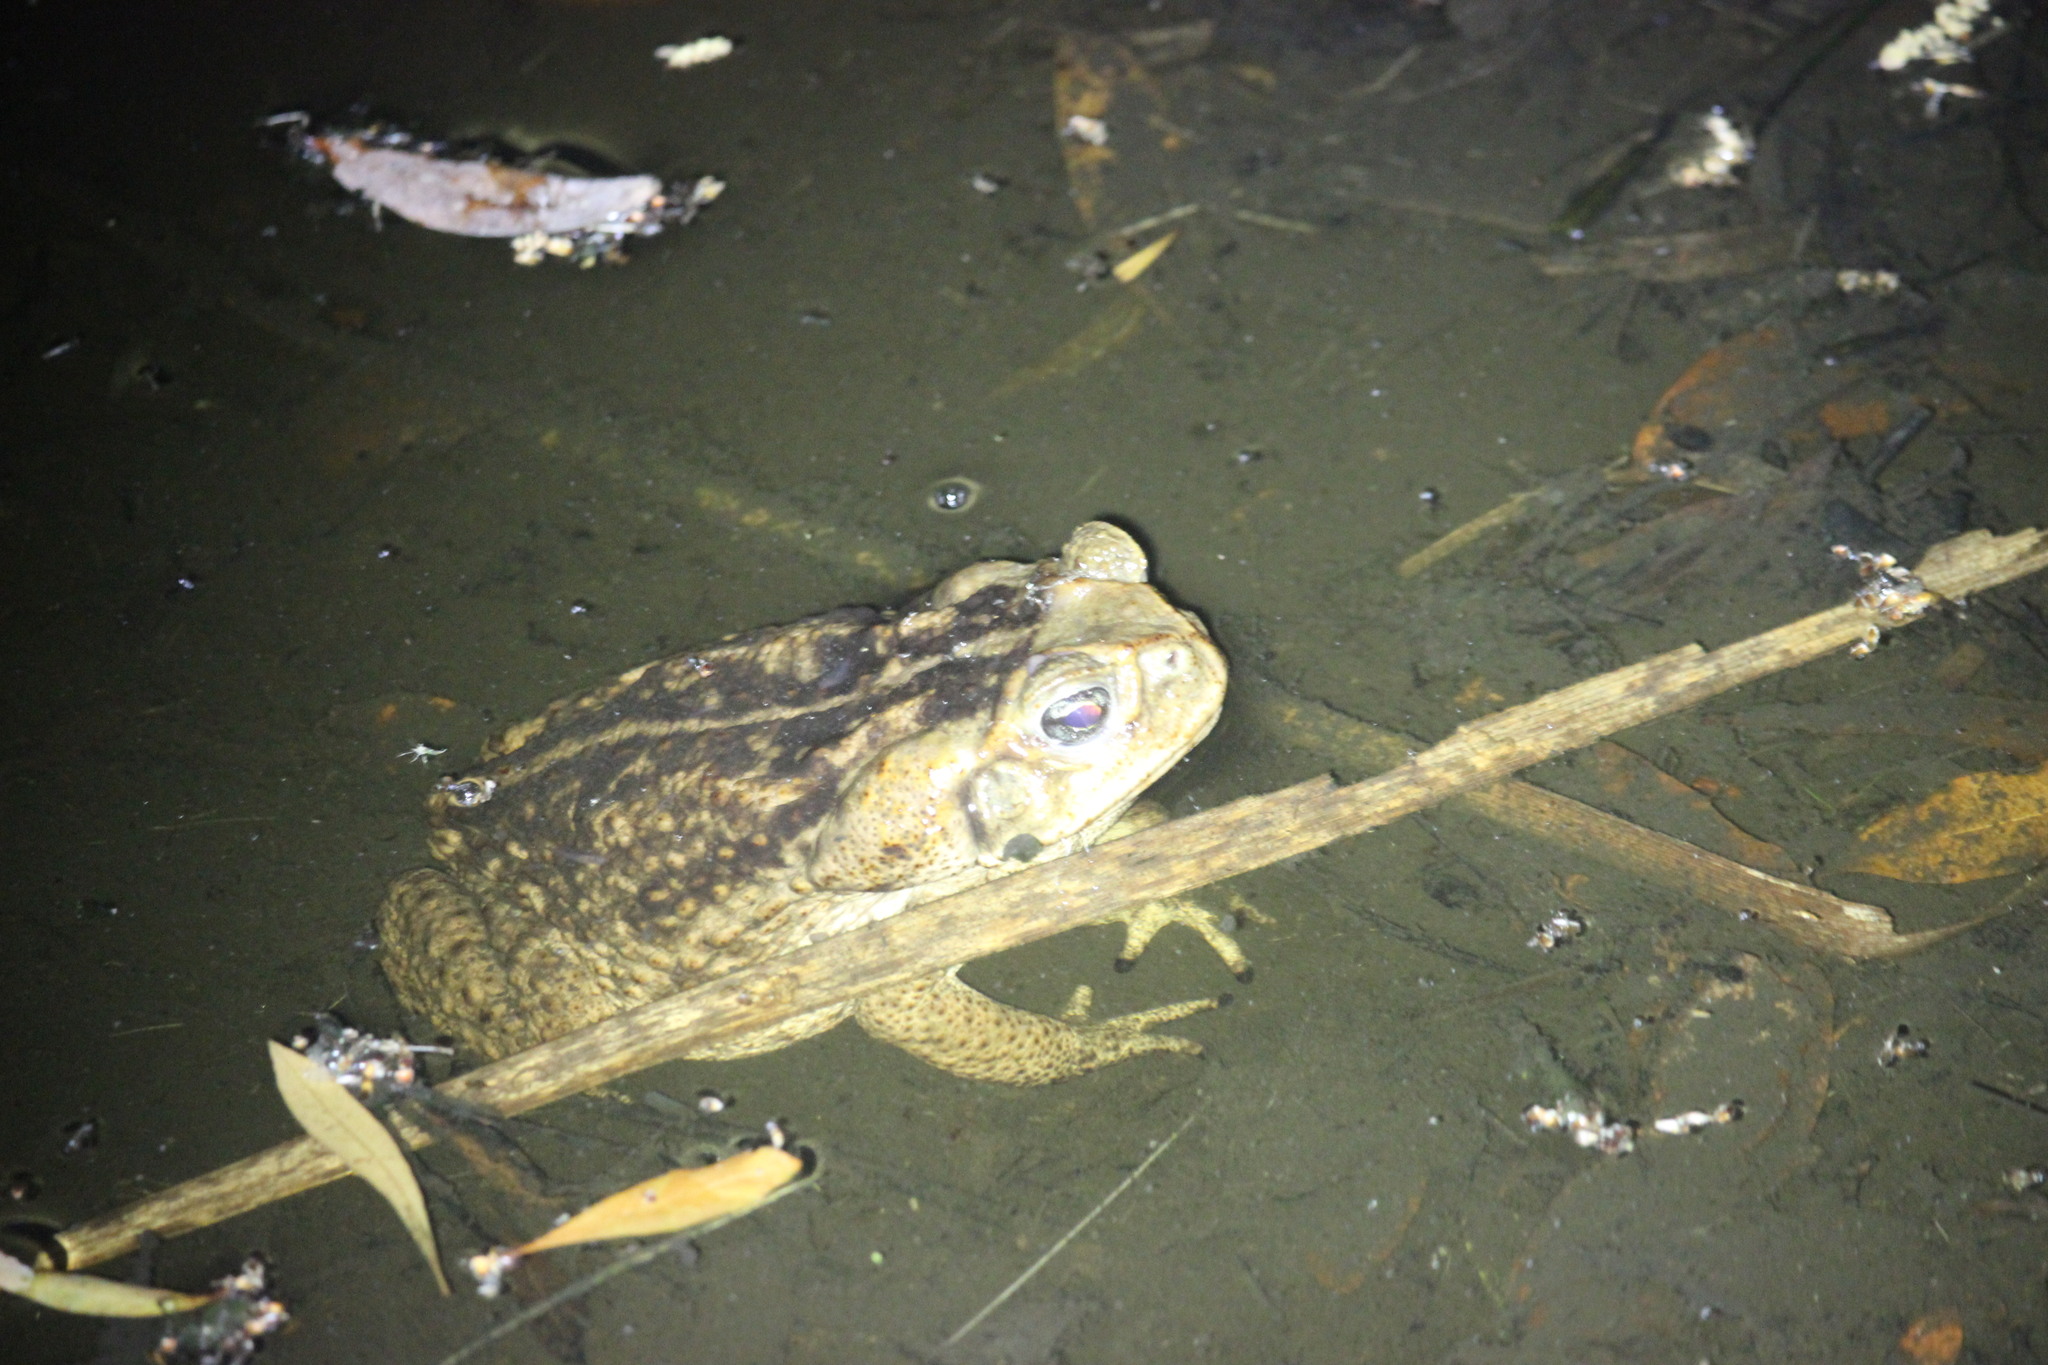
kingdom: Animalia
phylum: Chordata
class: Amphibia
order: Anura
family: Bufonidae
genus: Rhinella
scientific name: Rhinella marina
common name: Cane toad
